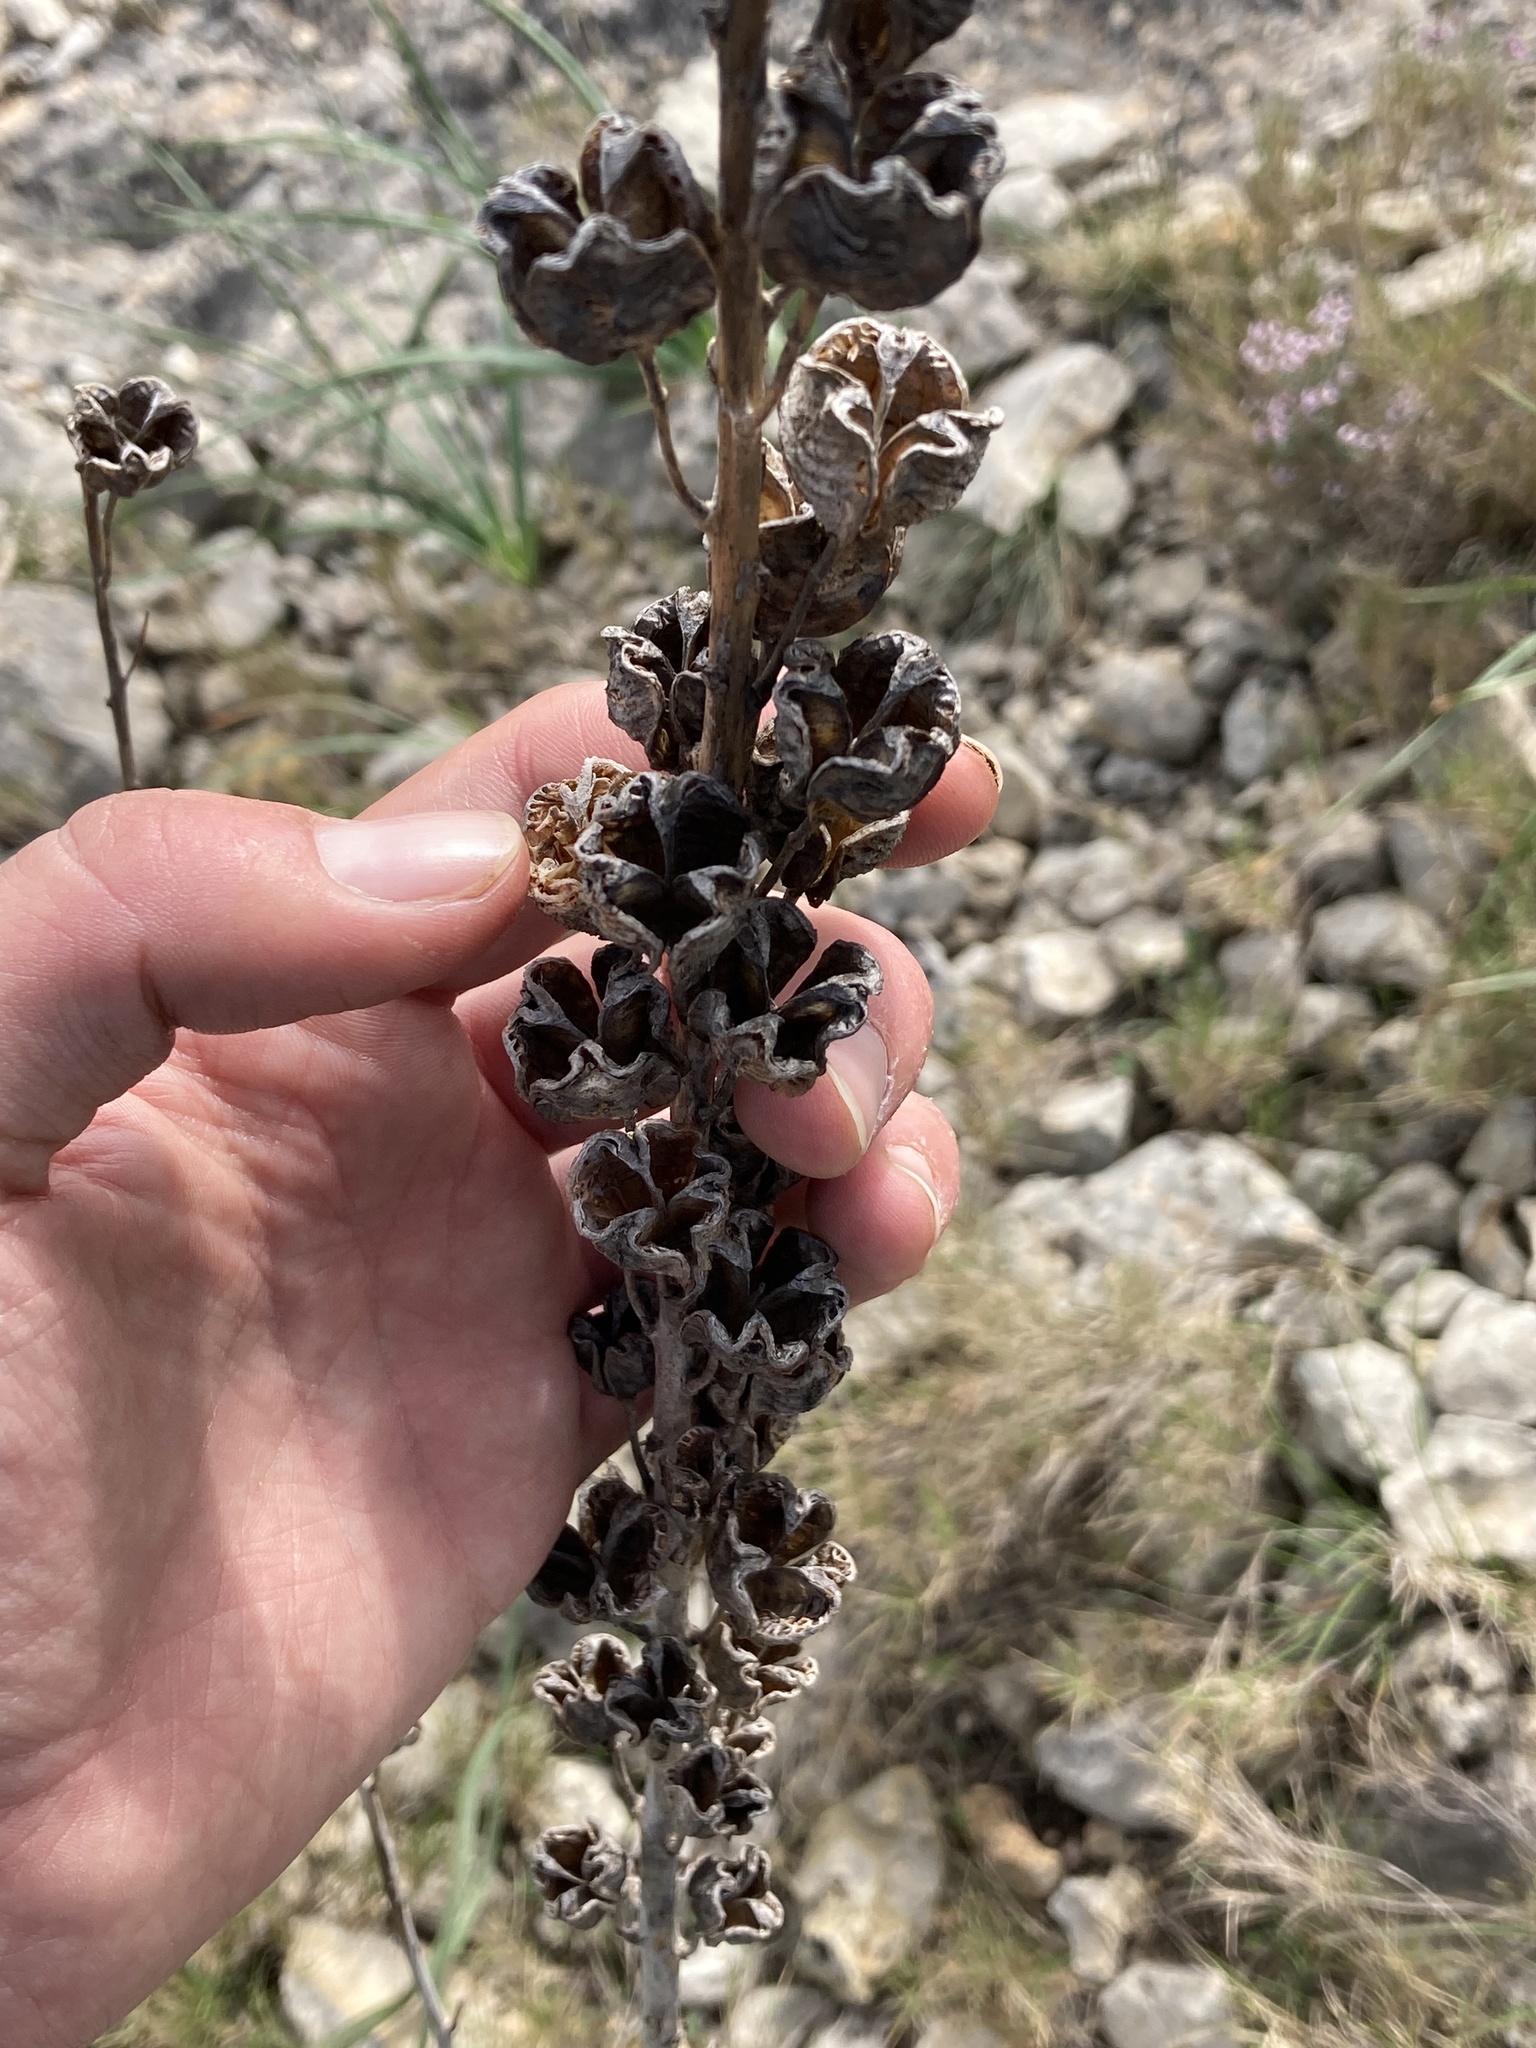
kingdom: Plantae
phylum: Tracheophyta
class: Liliopsida
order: Asparagales
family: Asphodelaceae
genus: Asphodelus
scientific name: Asphodelus cerasifer
